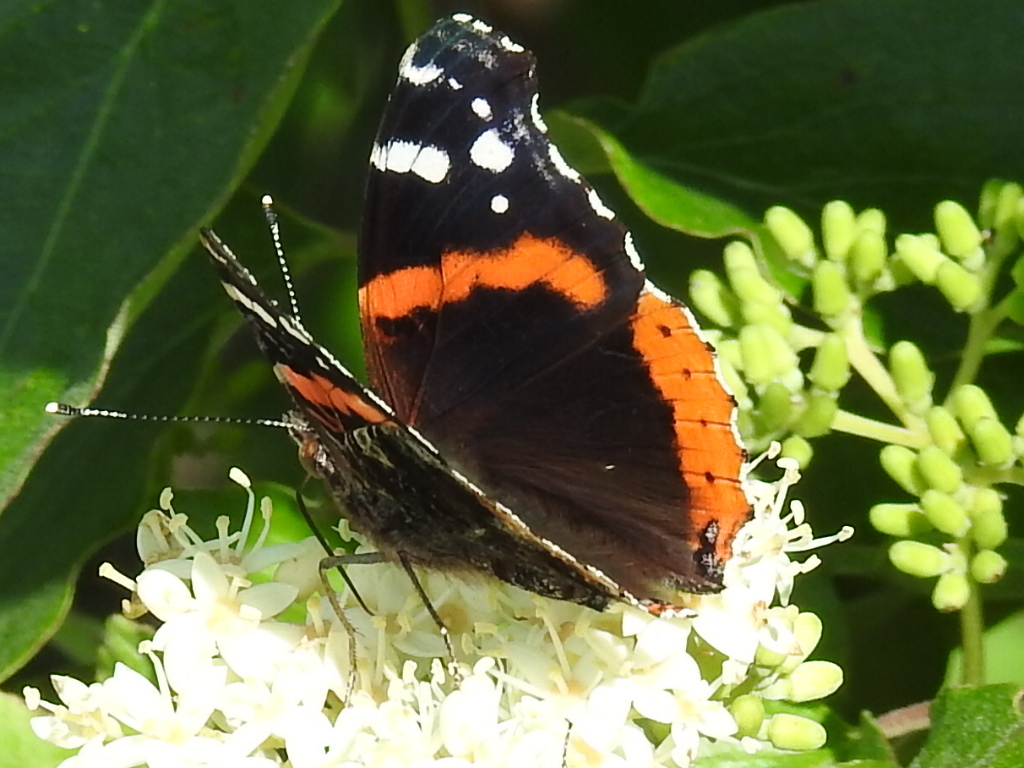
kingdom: Animalia
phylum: Arthropoda
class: Insecta
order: Lepidoptera
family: Nymphalidae
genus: Vanessa
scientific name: Vanessa atalanta
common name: Red admiral
